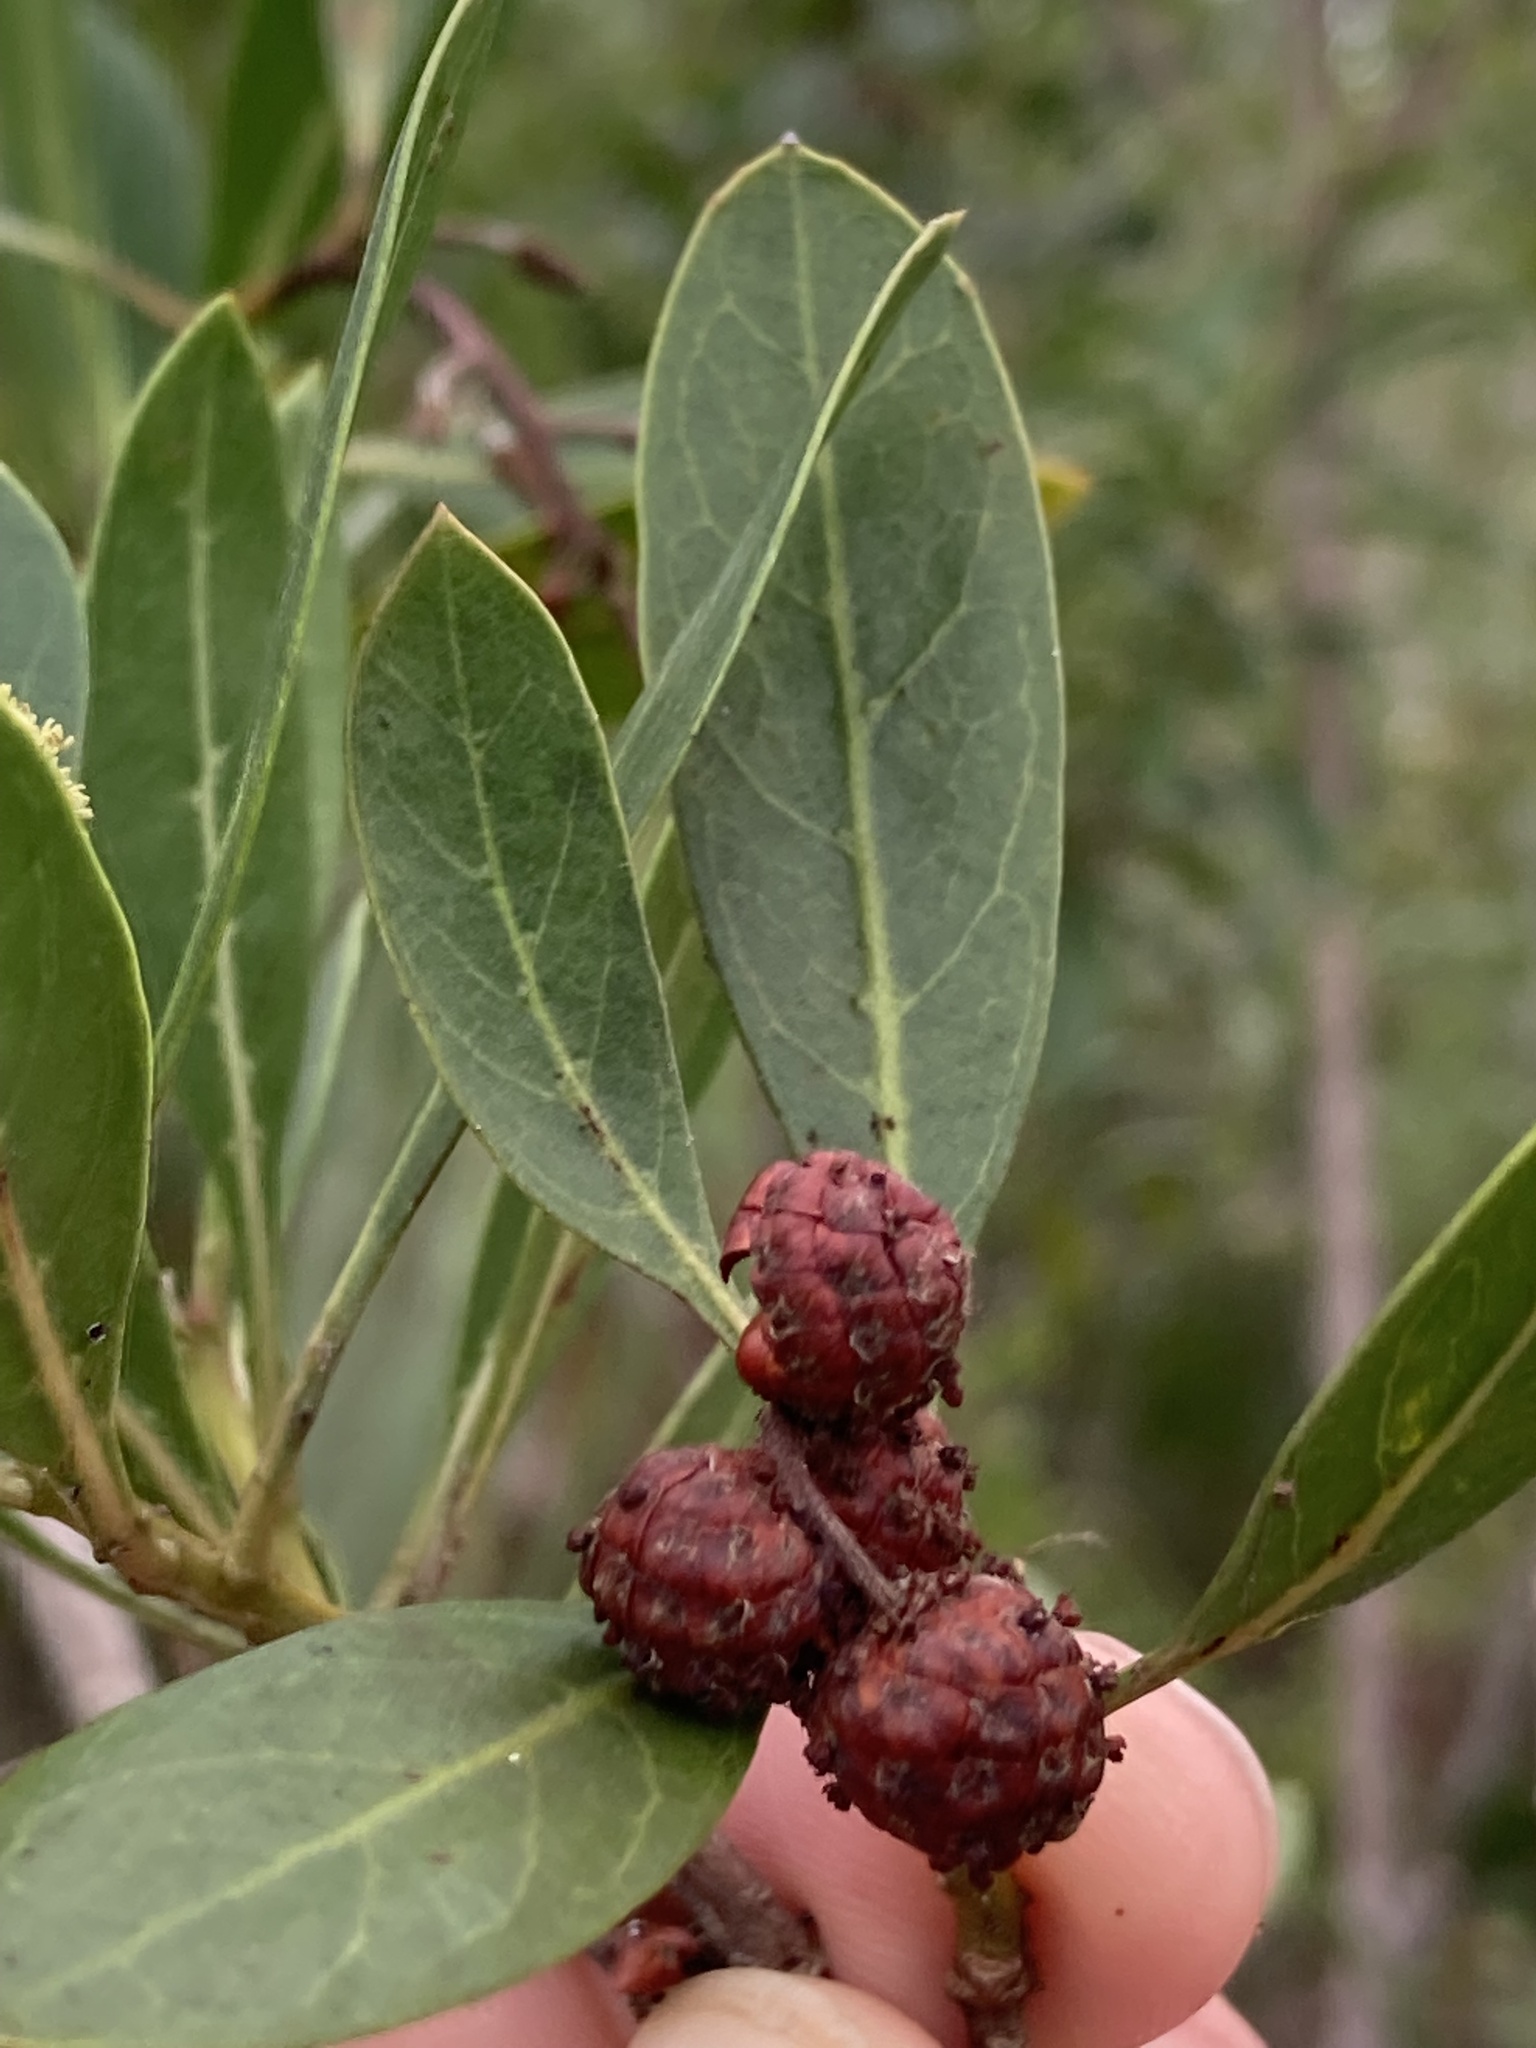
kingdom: Plantae
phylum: Tracheophyta
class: Magnoliopsida
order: Myrtales
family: Combretaceae
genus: Conocarpus
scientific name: Conocarpus erectus
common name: Button mangrove
